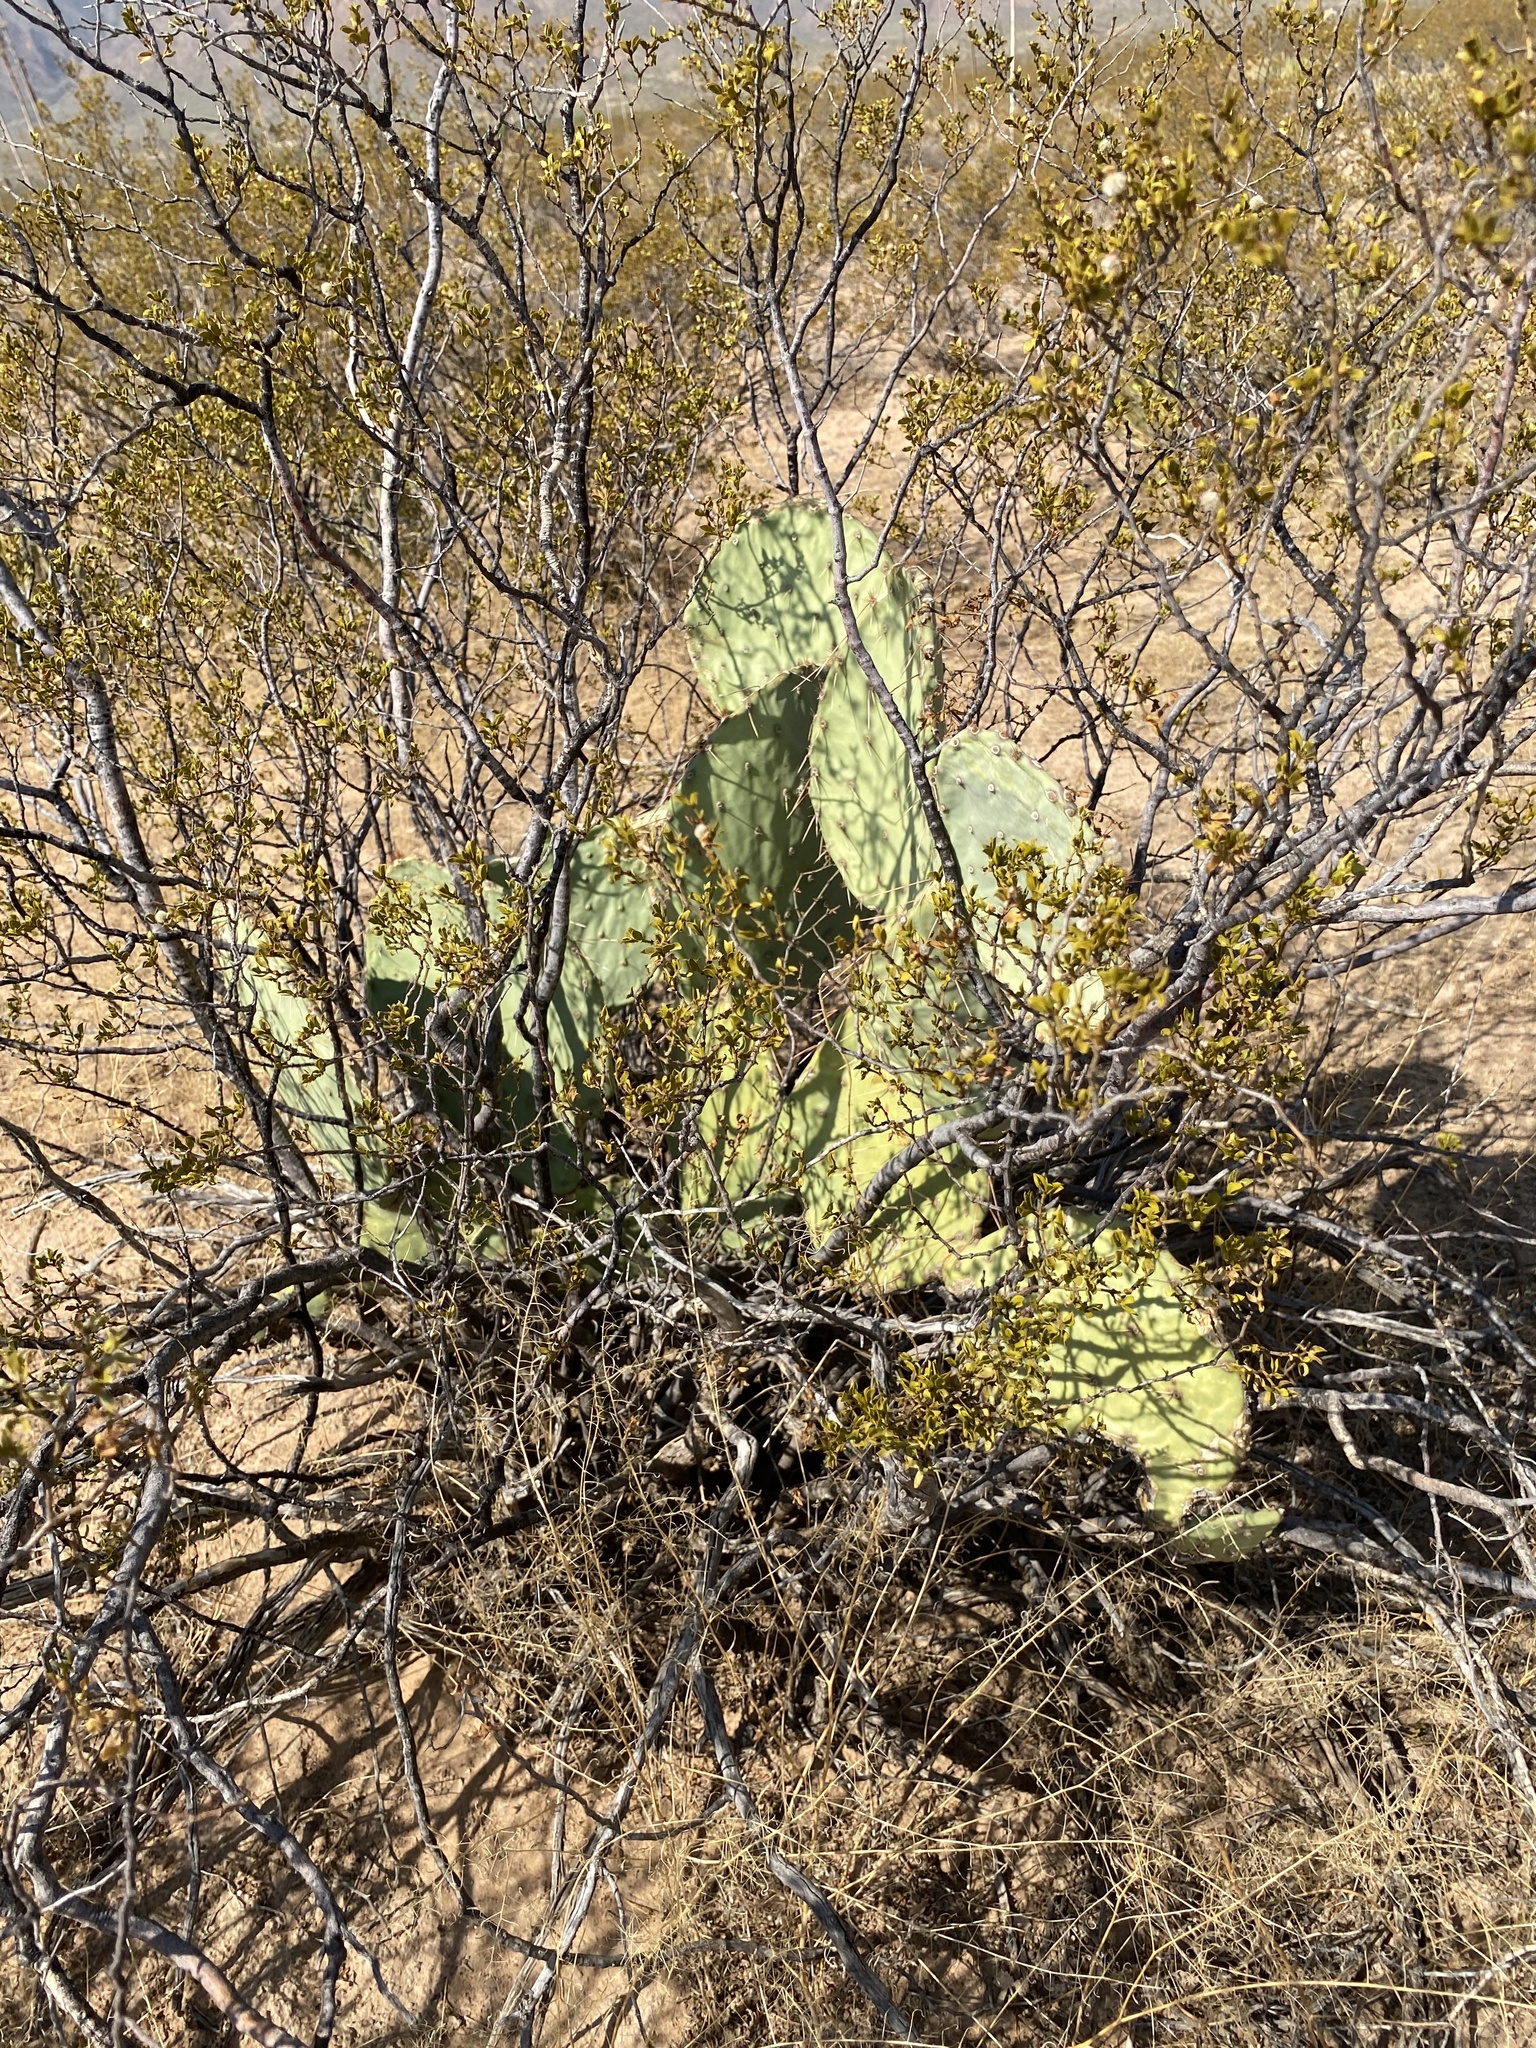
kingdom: Plantae
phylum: Tracheophyta
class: Magnoliopsida
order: Caryophyllales
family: Cactaceae
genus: Opuntia
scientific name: Opuntia engelmannii
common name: Cactus-apple
